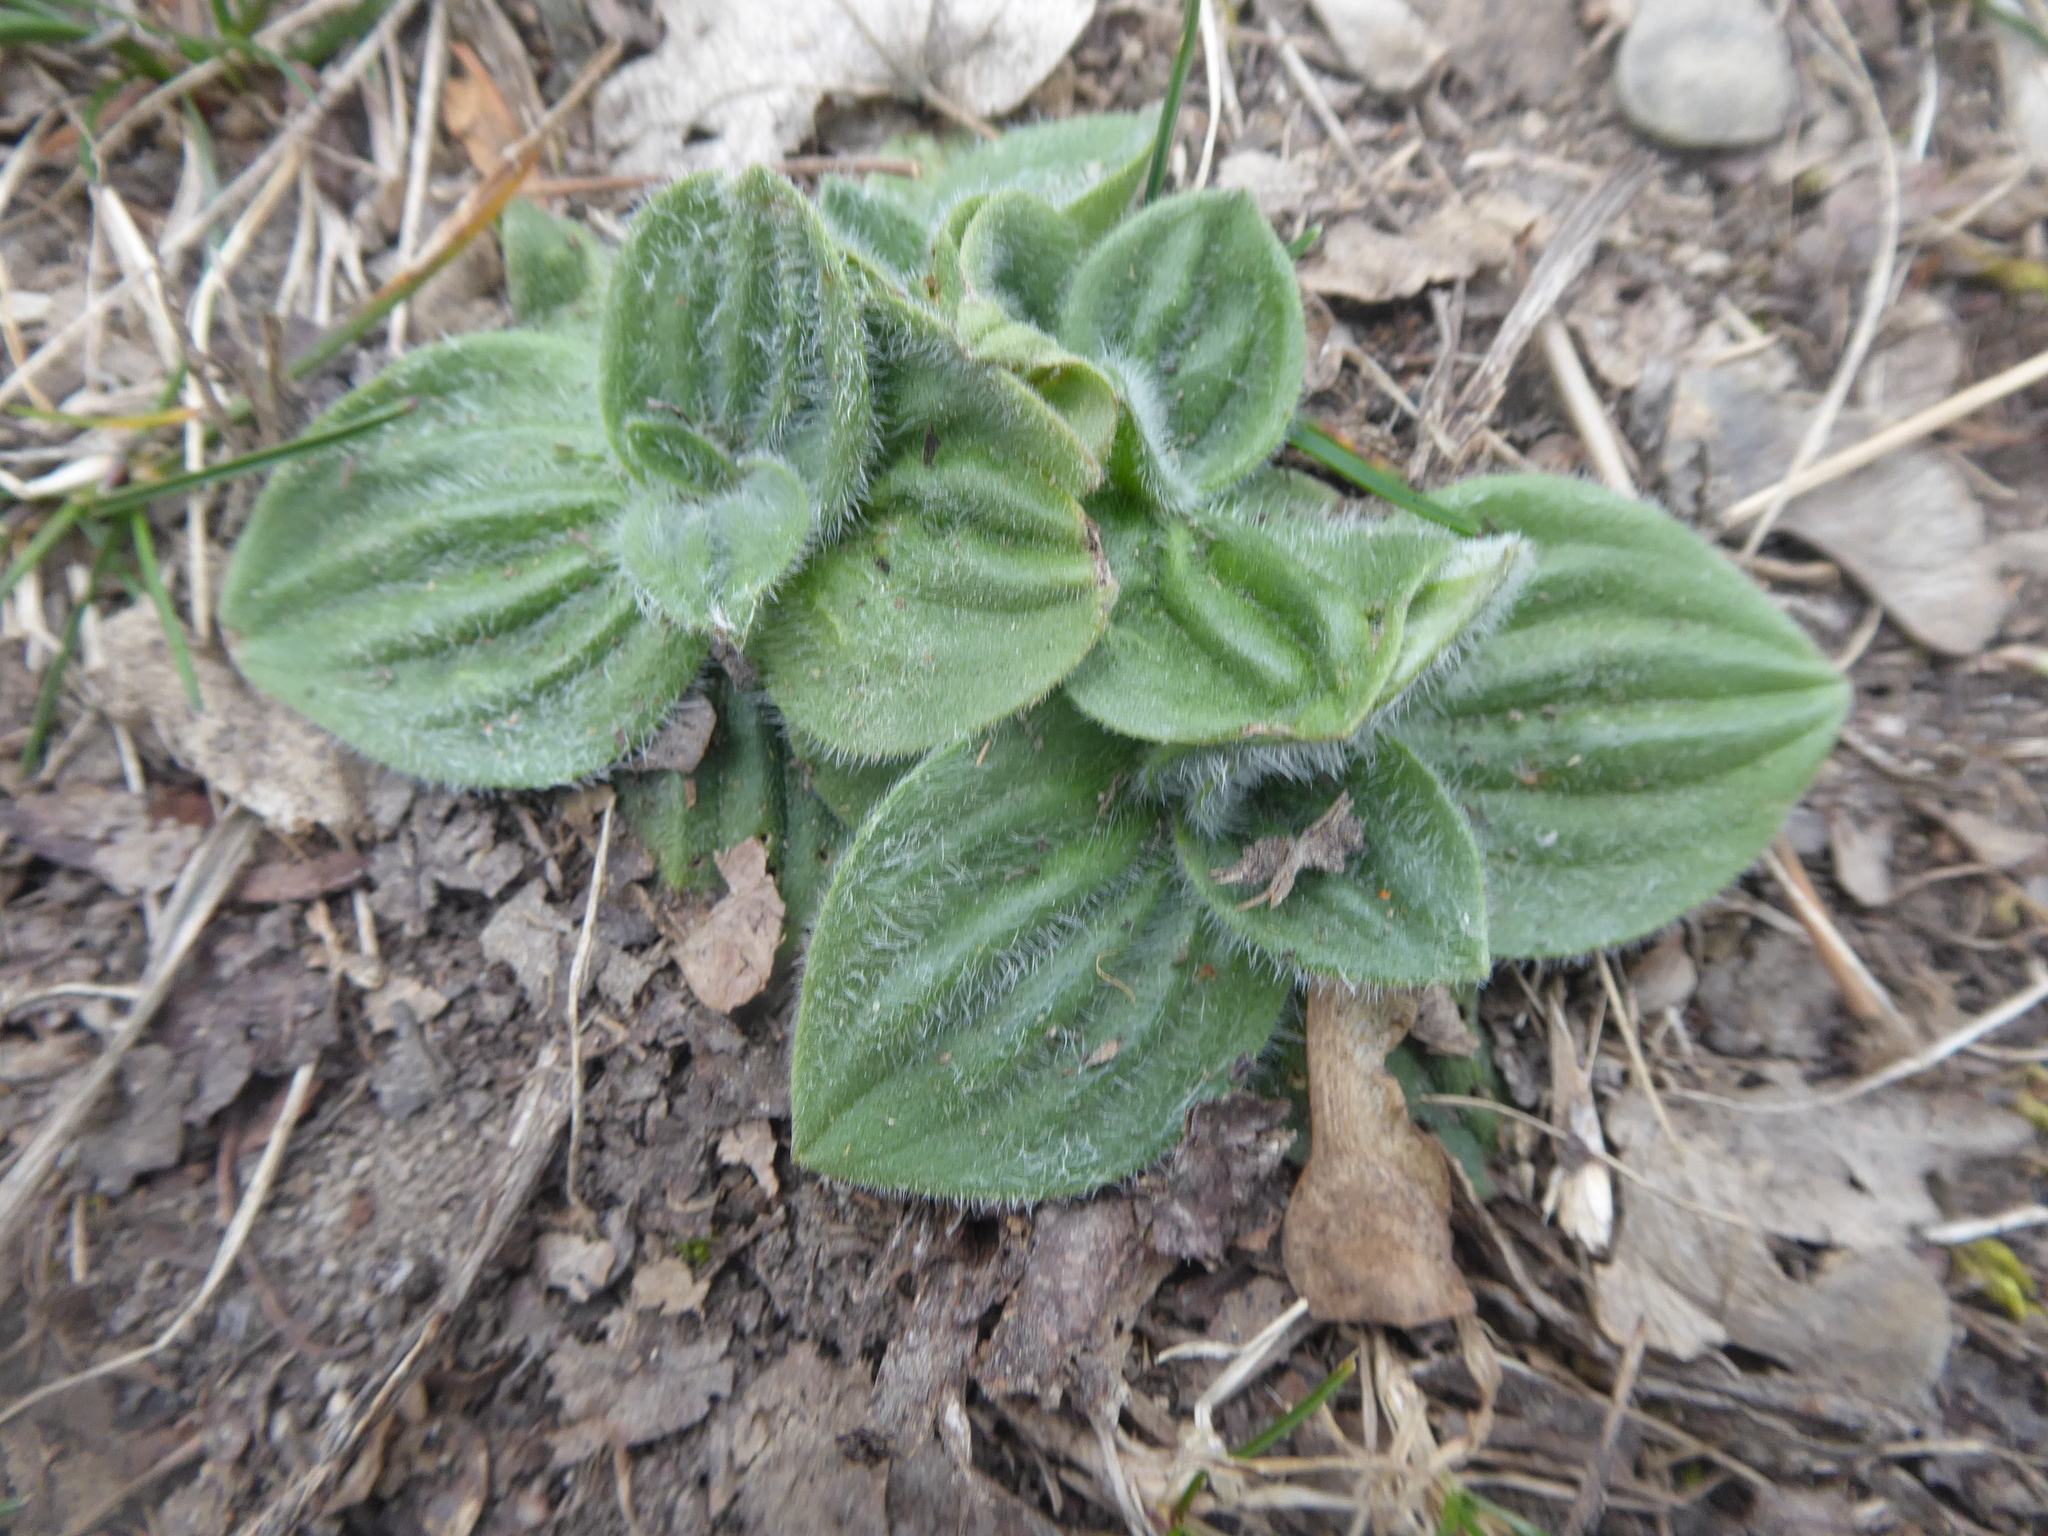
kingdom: Plantae
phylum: Tracheophyta
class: Magnoliopsida
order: Lamiales
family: Plantaginaceae
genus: Plantago
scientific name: Plantago media
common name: Hoary plantain
